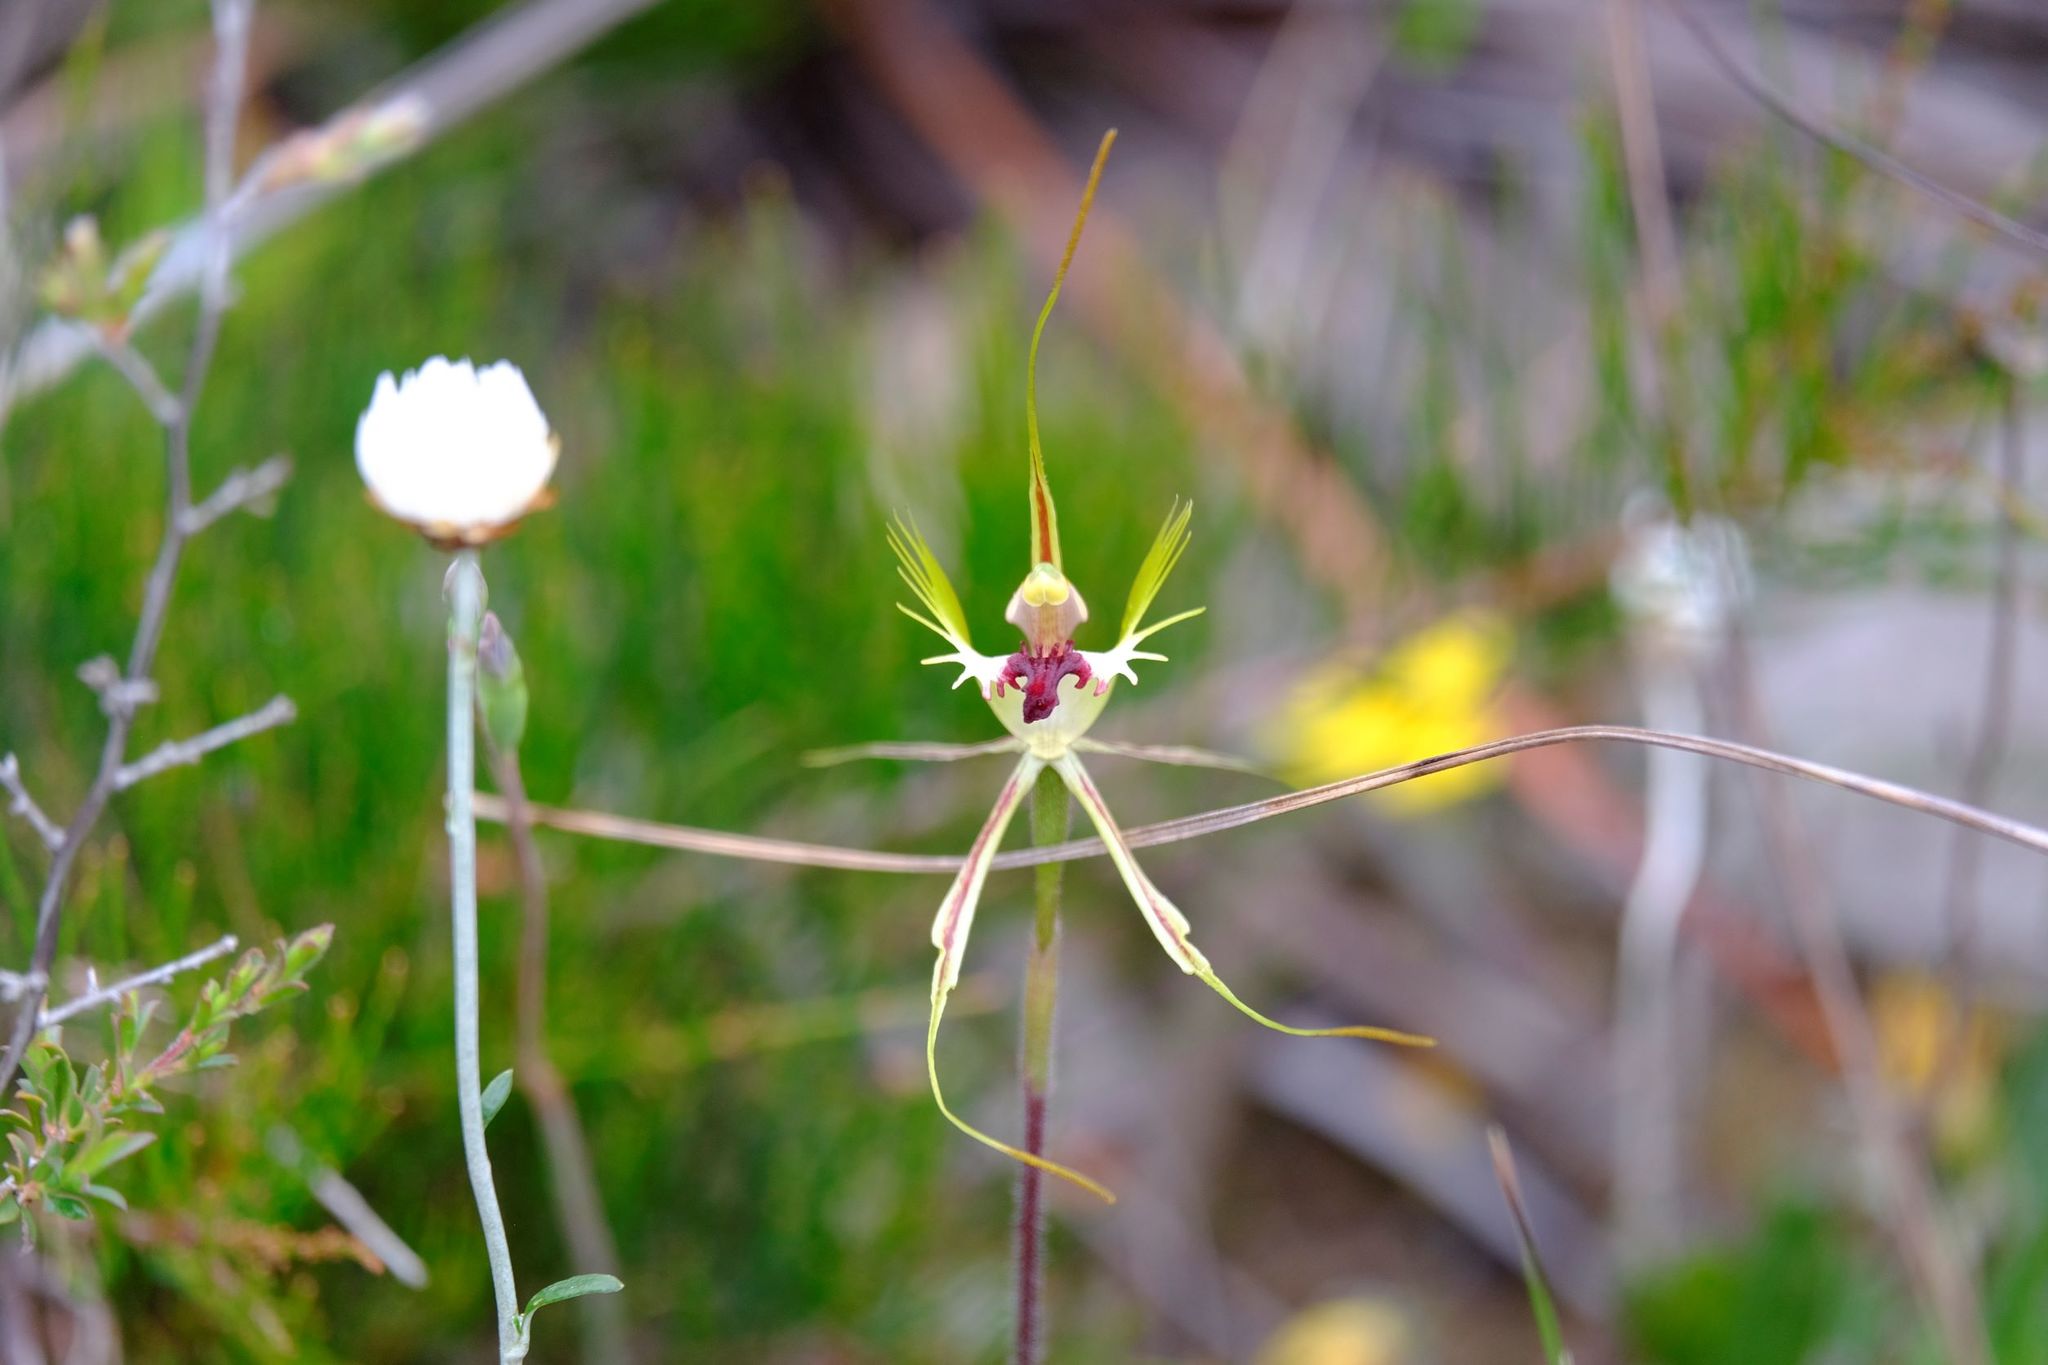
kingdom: Plantae
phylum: Tracheophyta
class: Liliopsida
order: Asparagales
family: Orchidaceae
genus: Caladenia
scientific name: Caladenia tentaculata
